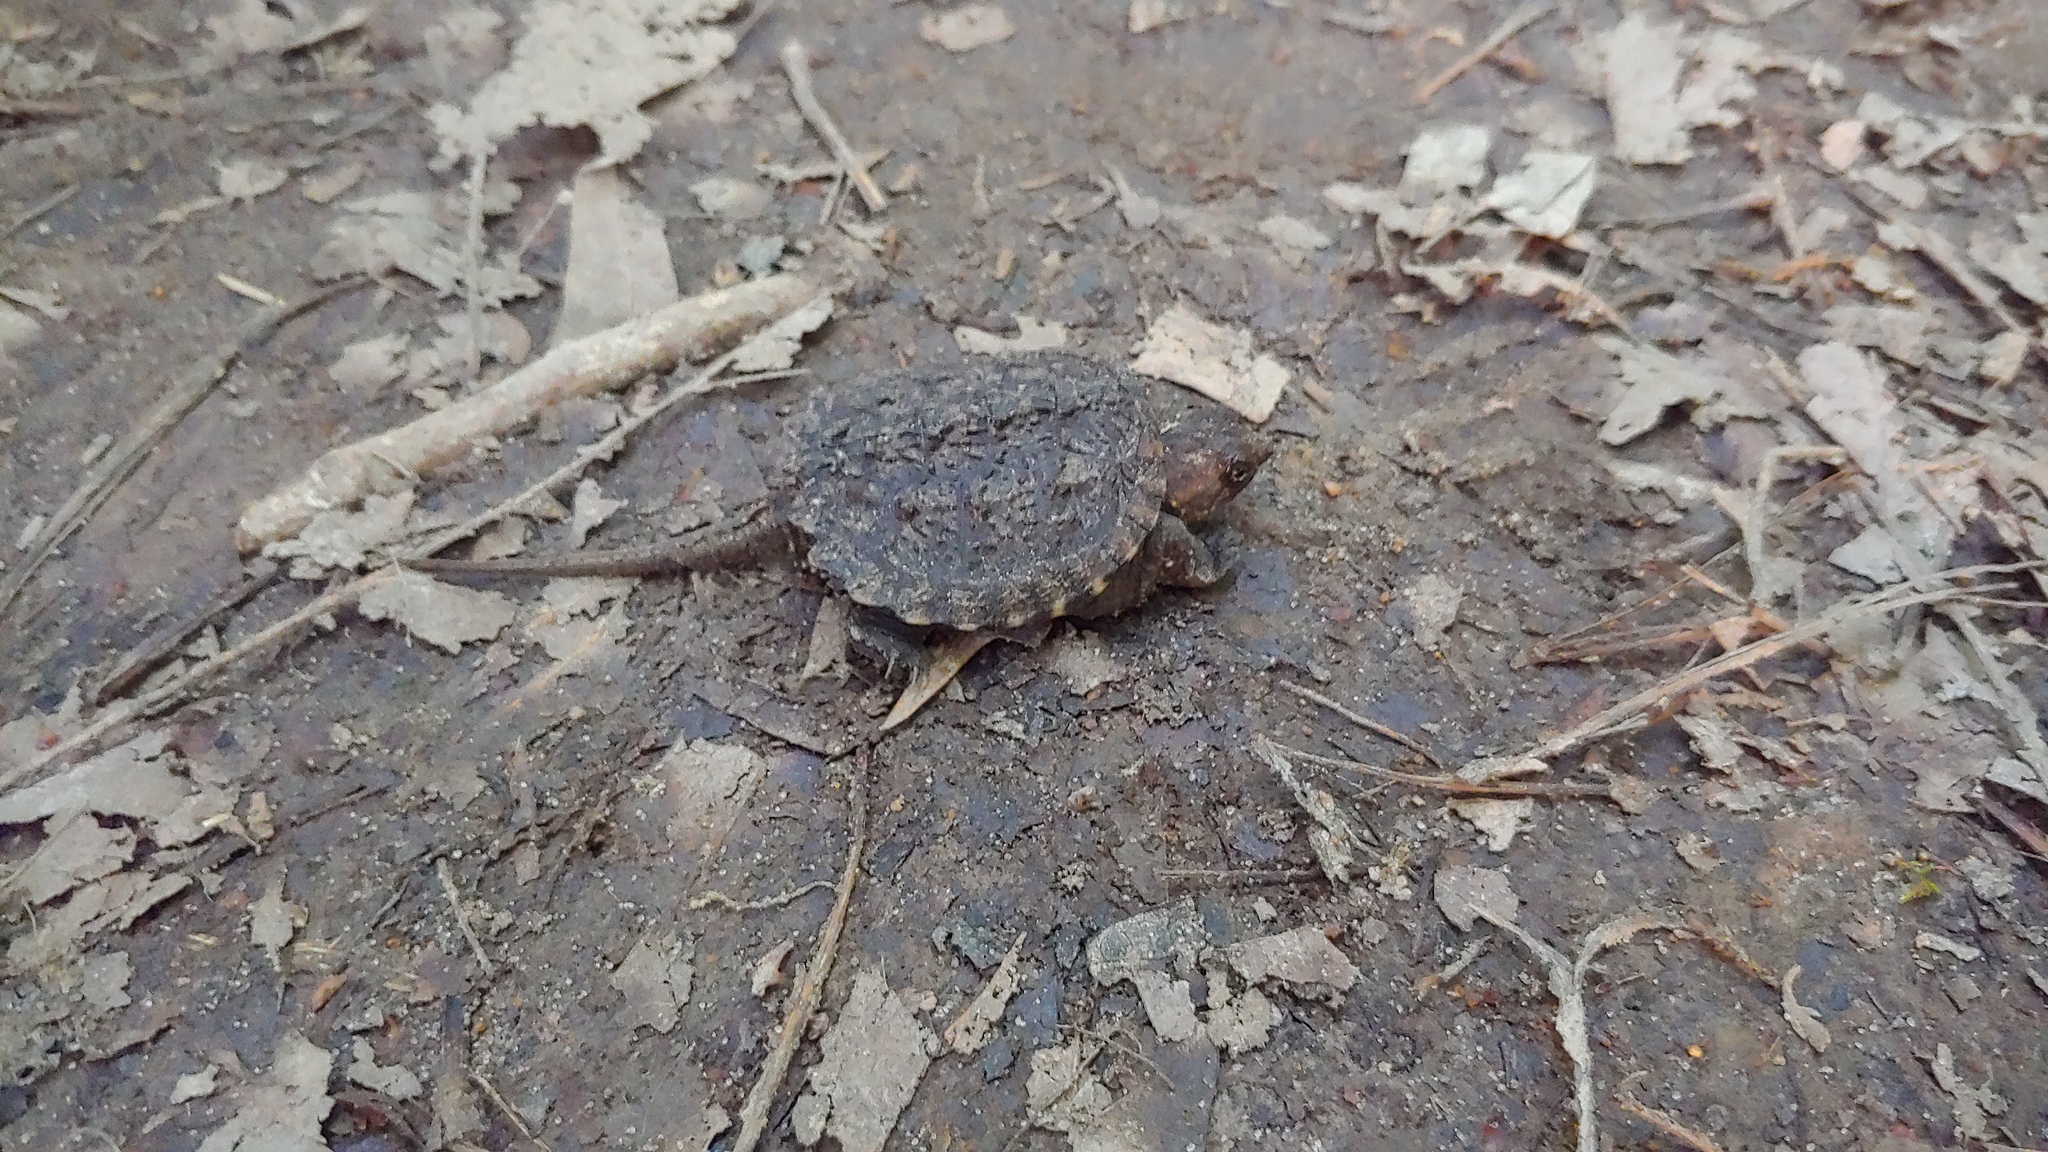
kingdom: Animalia
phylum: Chordata
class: Testudines
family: Chelydridae
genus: Chelydra
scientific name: Chelydra serpentina
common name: Common snapping turtle
